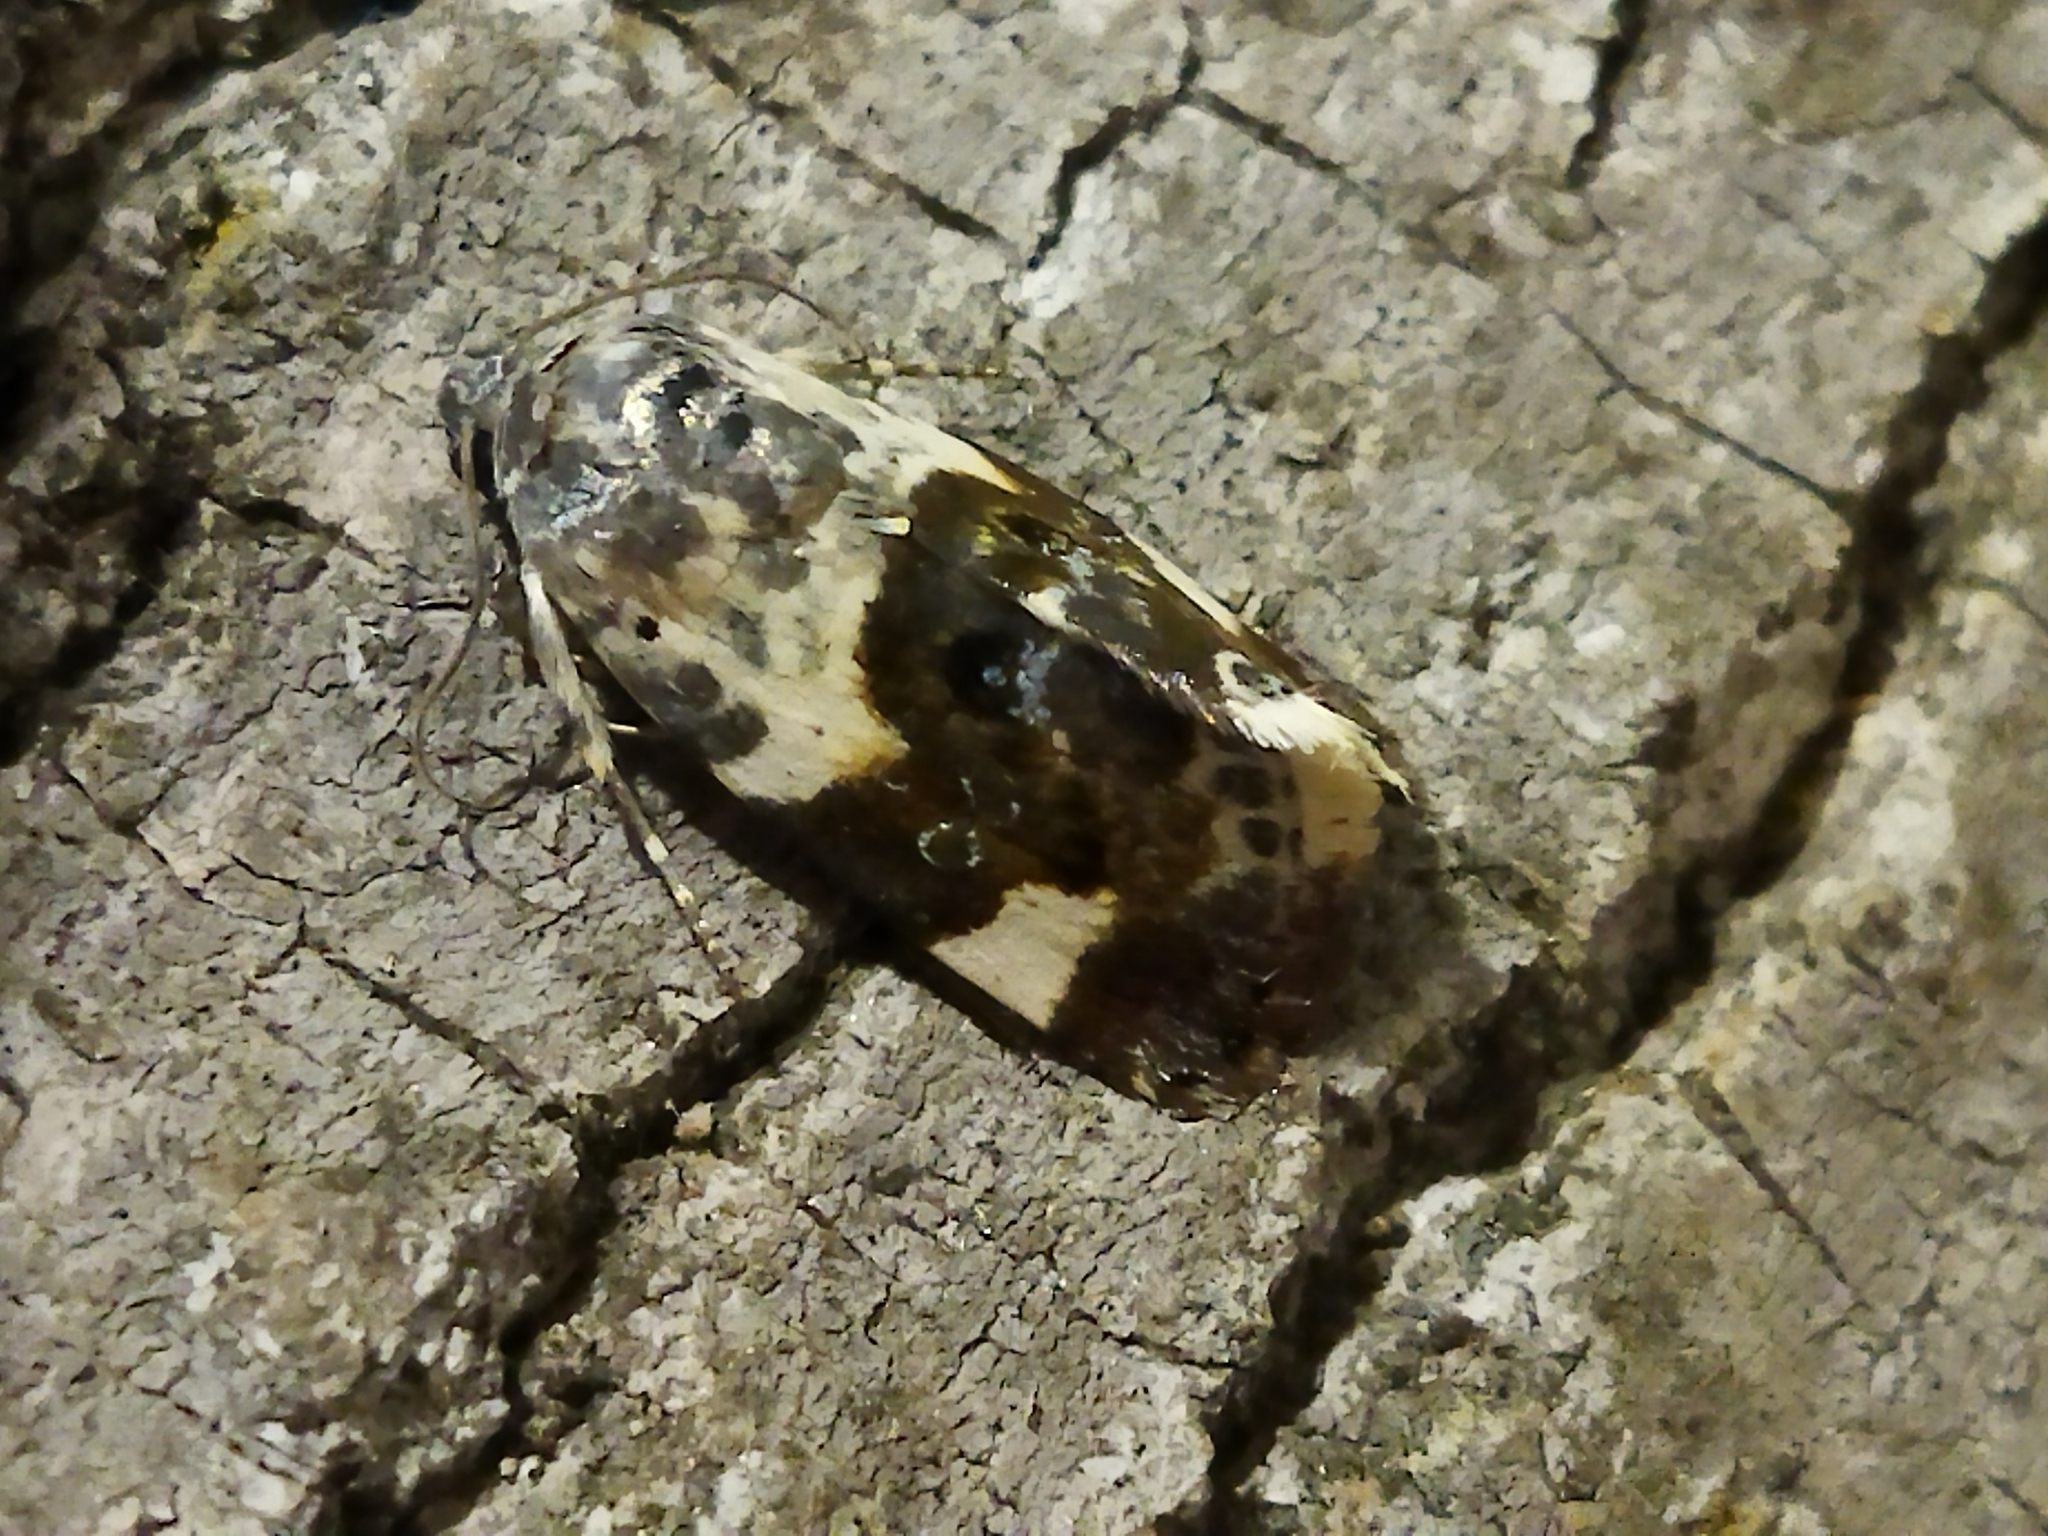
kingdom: Animalia
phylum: Arthropoda
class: Insecta
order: Lepidoptera
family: Noctuidae
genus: Acontia
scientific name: Acontia lucida
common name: Pale shoulder
